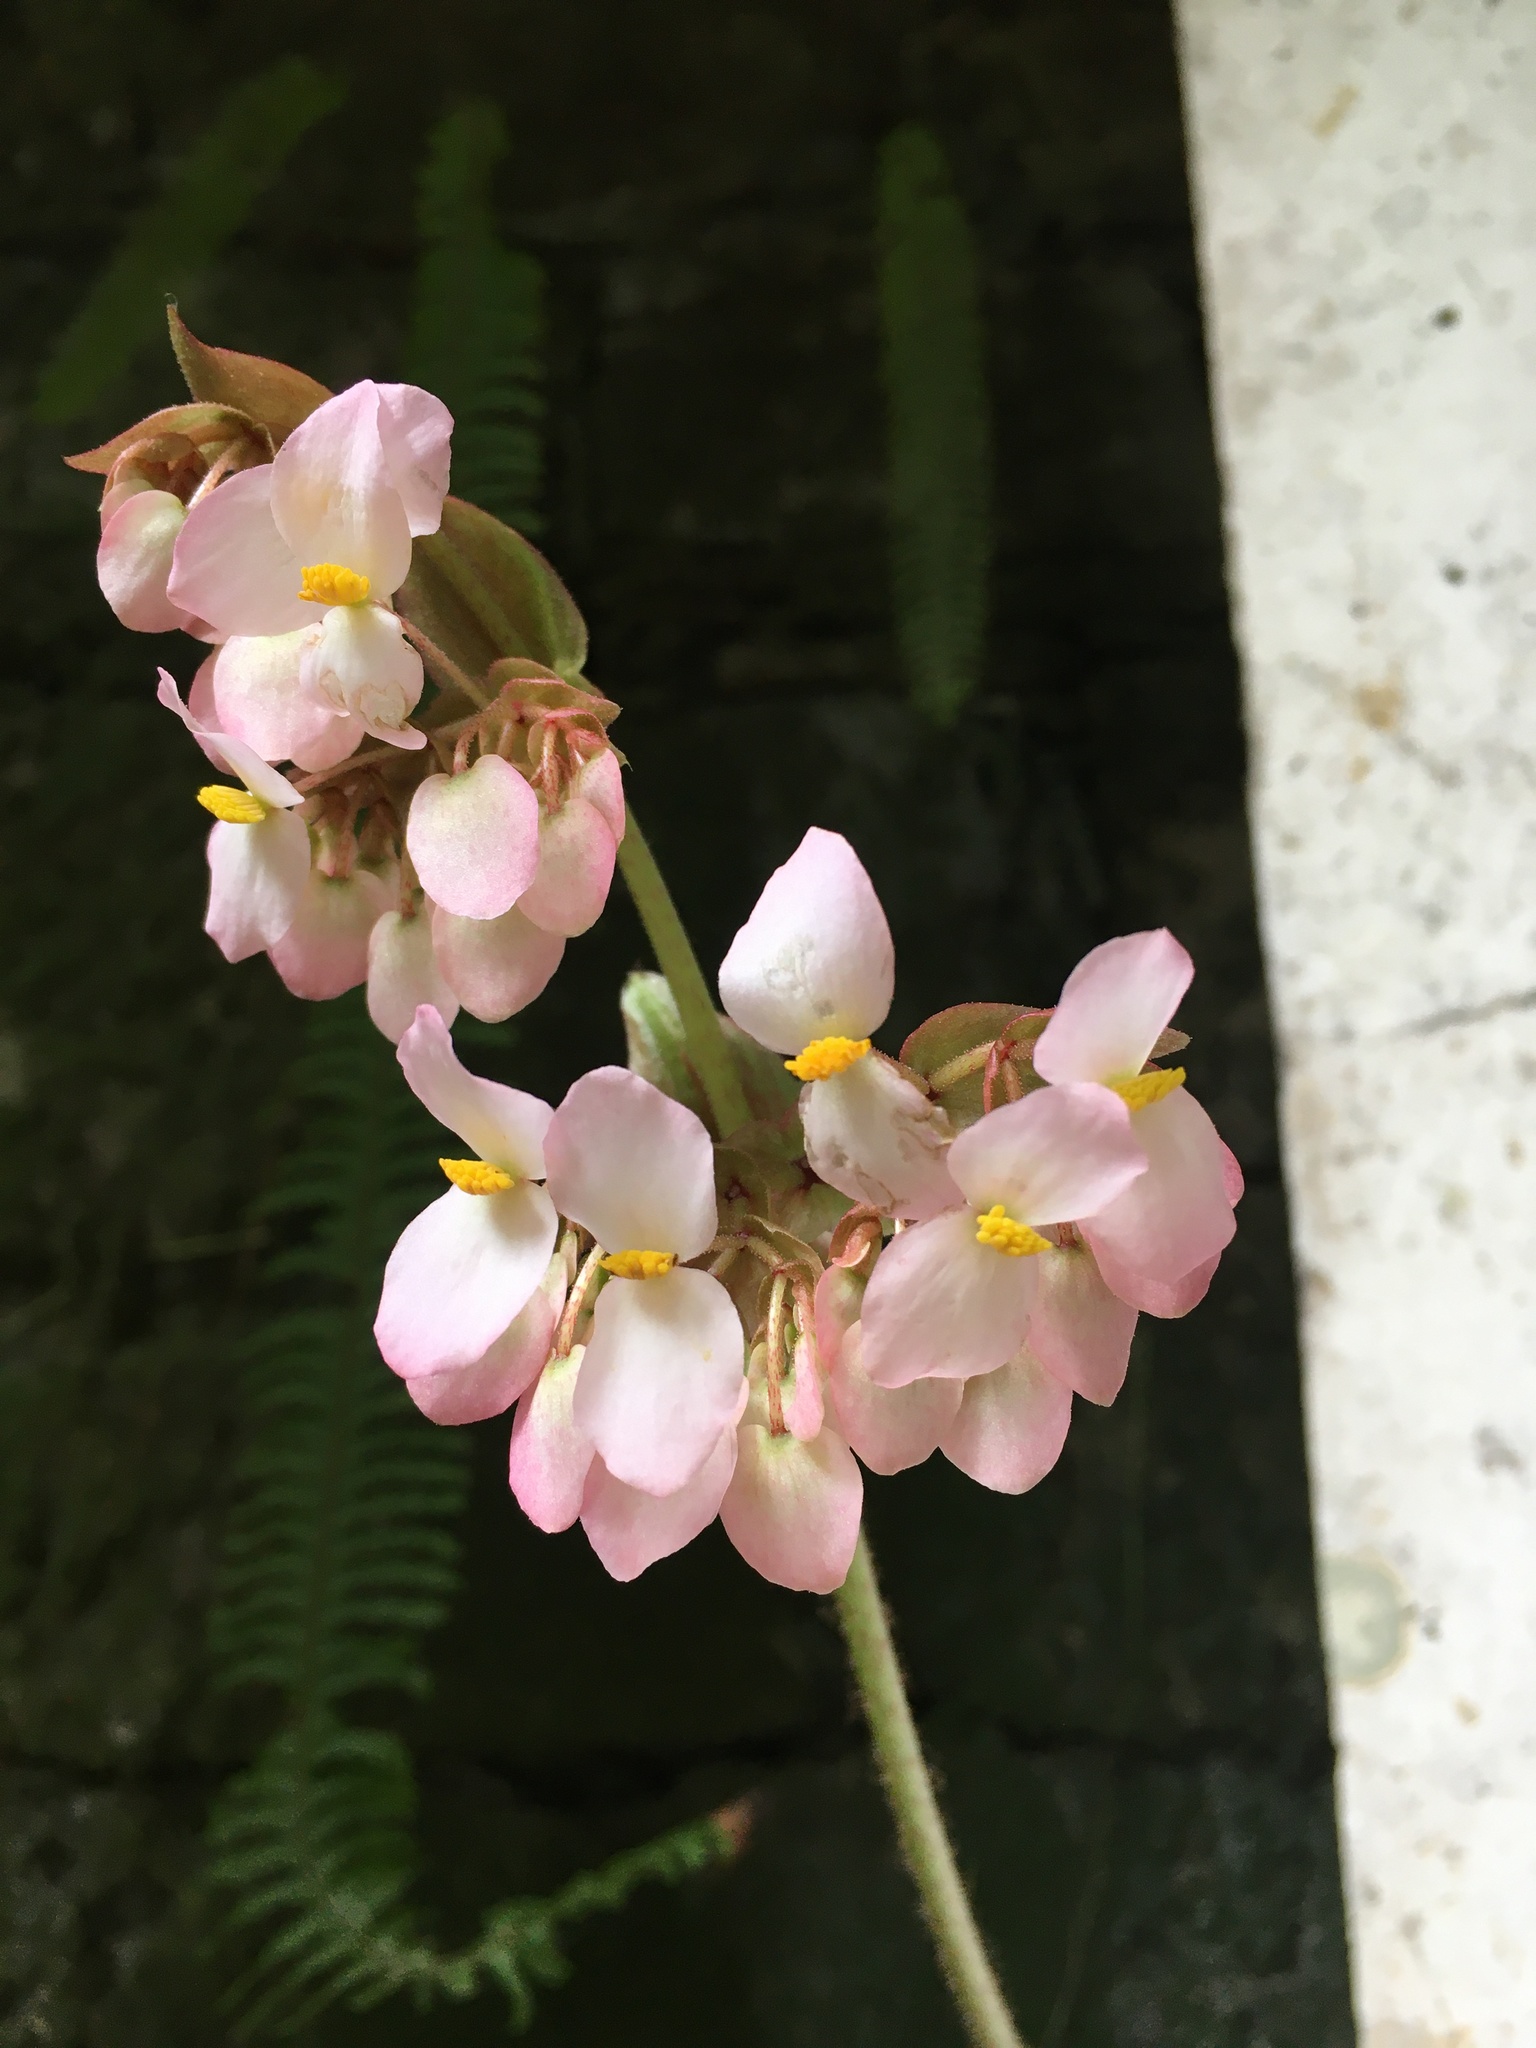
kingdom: Plantae
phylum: Tracheophyta
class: Magnoliopsida
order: Cucurbitales
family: Begoniaceae
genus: Begonia
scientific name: Begonia heracleifolia
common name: Star begonia
